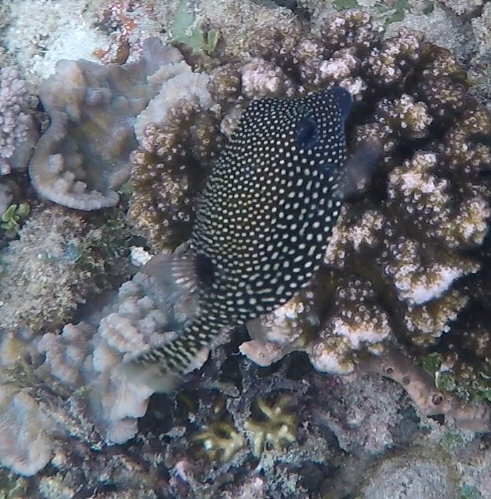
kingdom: Animalia
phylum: Chordata
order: Tetraodontiformes
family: Ostraciidae
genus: Ostracion
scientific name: Ostracion meleagris
